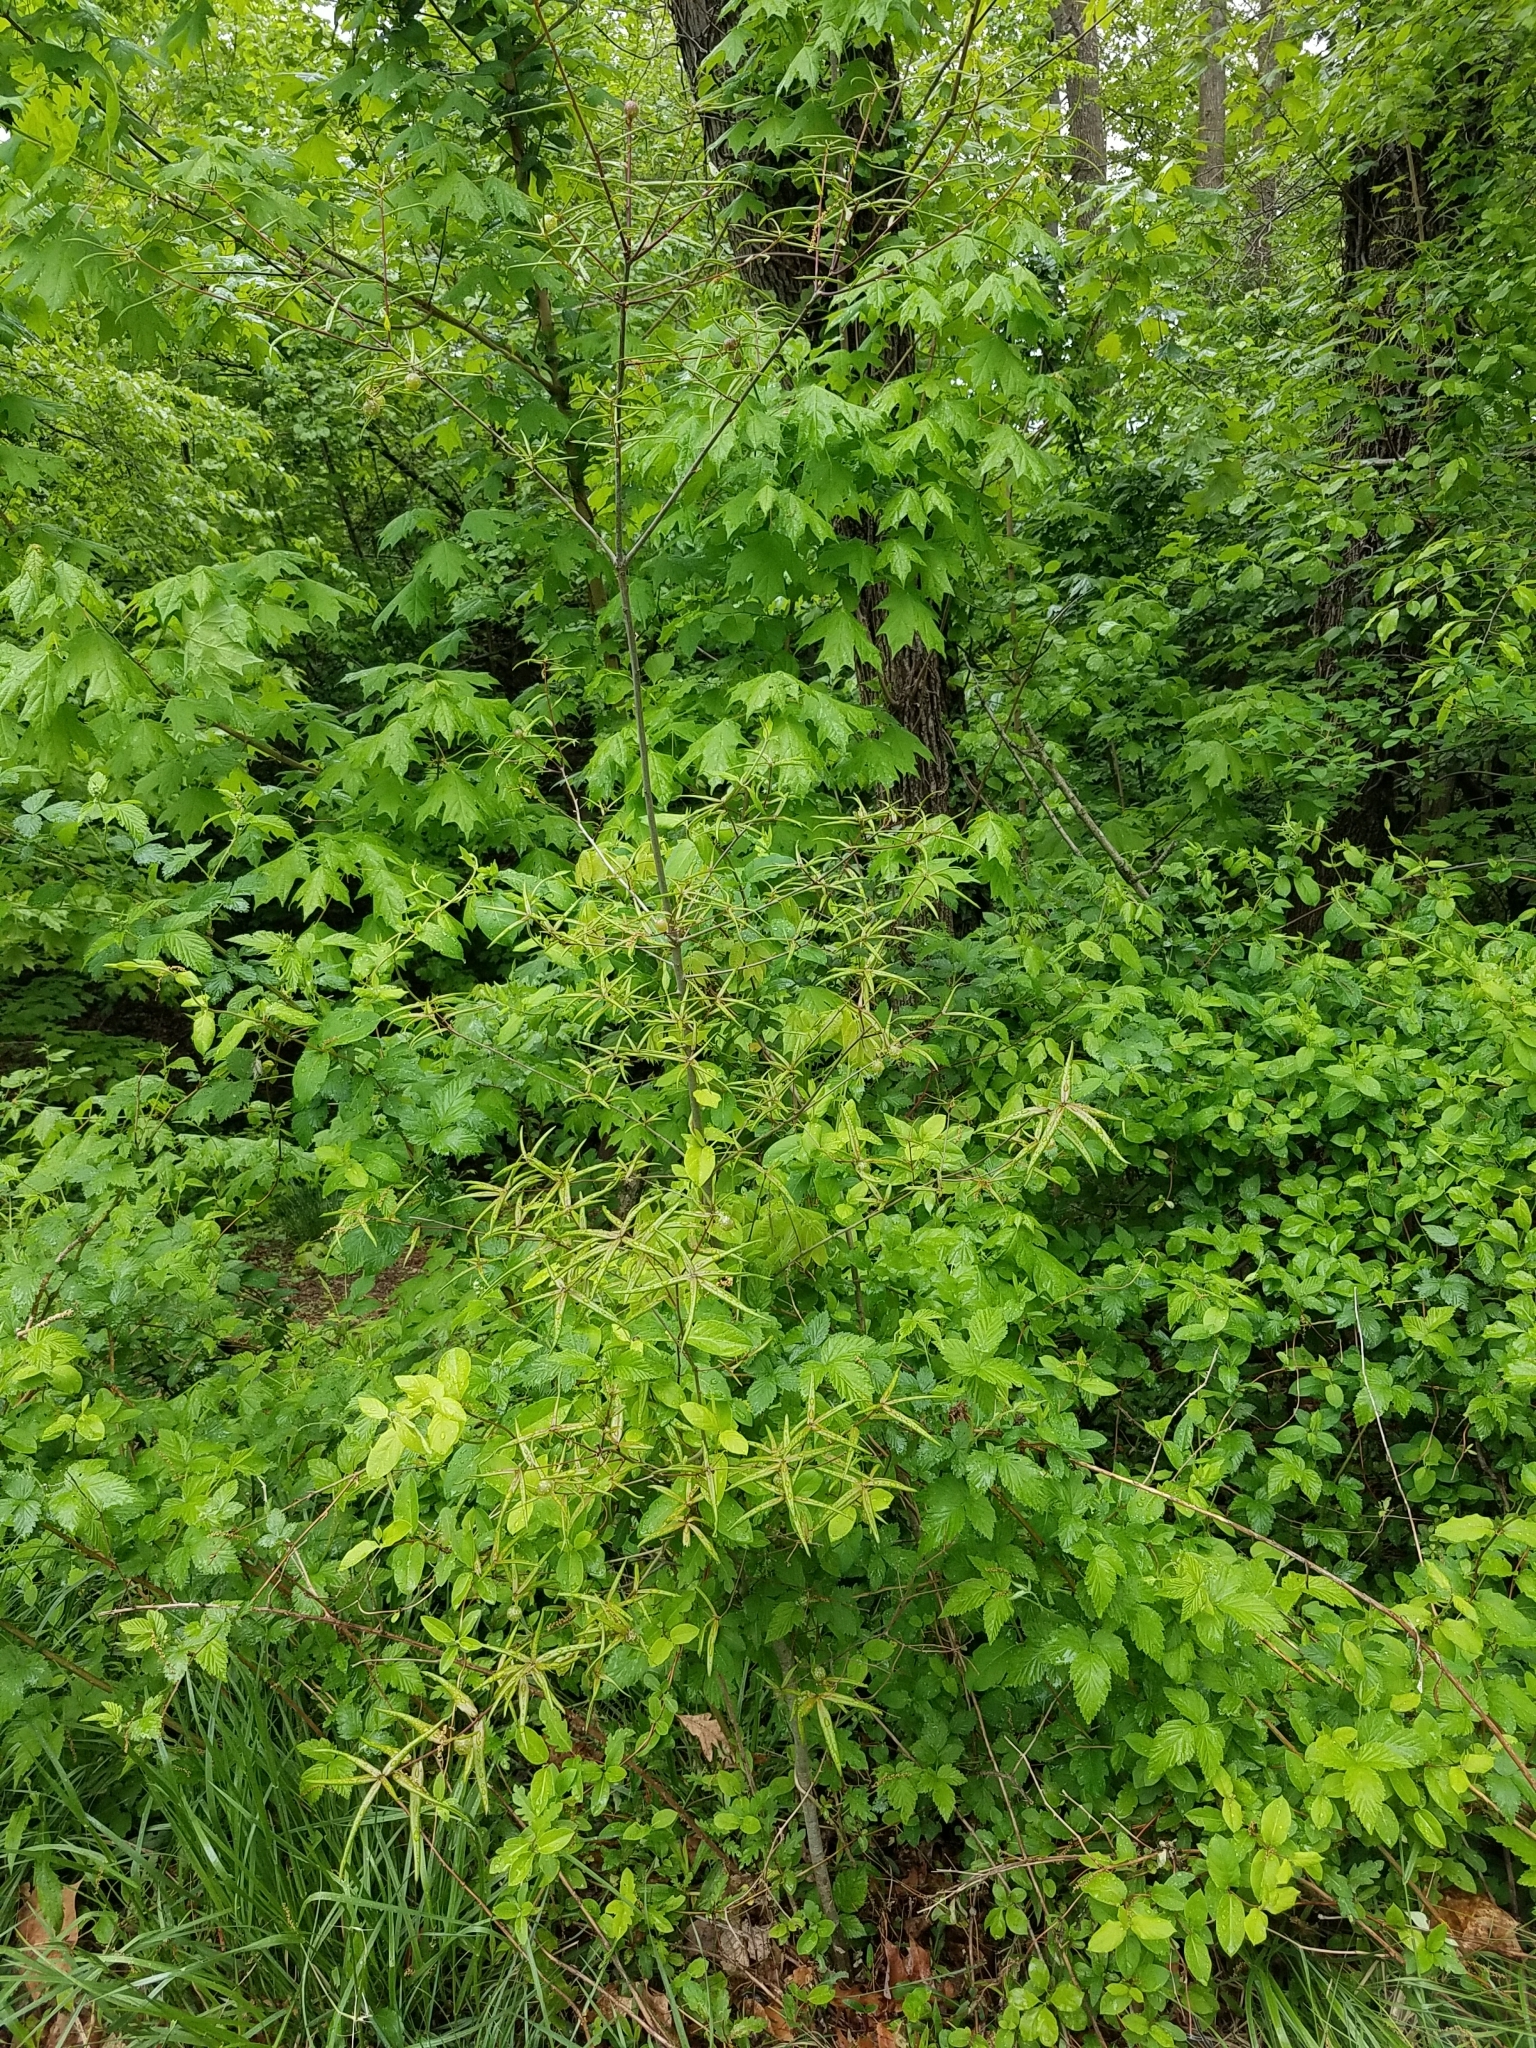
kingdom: Animalia
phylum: Arthropoda
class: Insecta
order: Hymenoptera
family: Cynipidae
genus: Dryocosmus
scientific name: Dryocosmus quercuspalustris
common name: Succulent oak gall wasp
